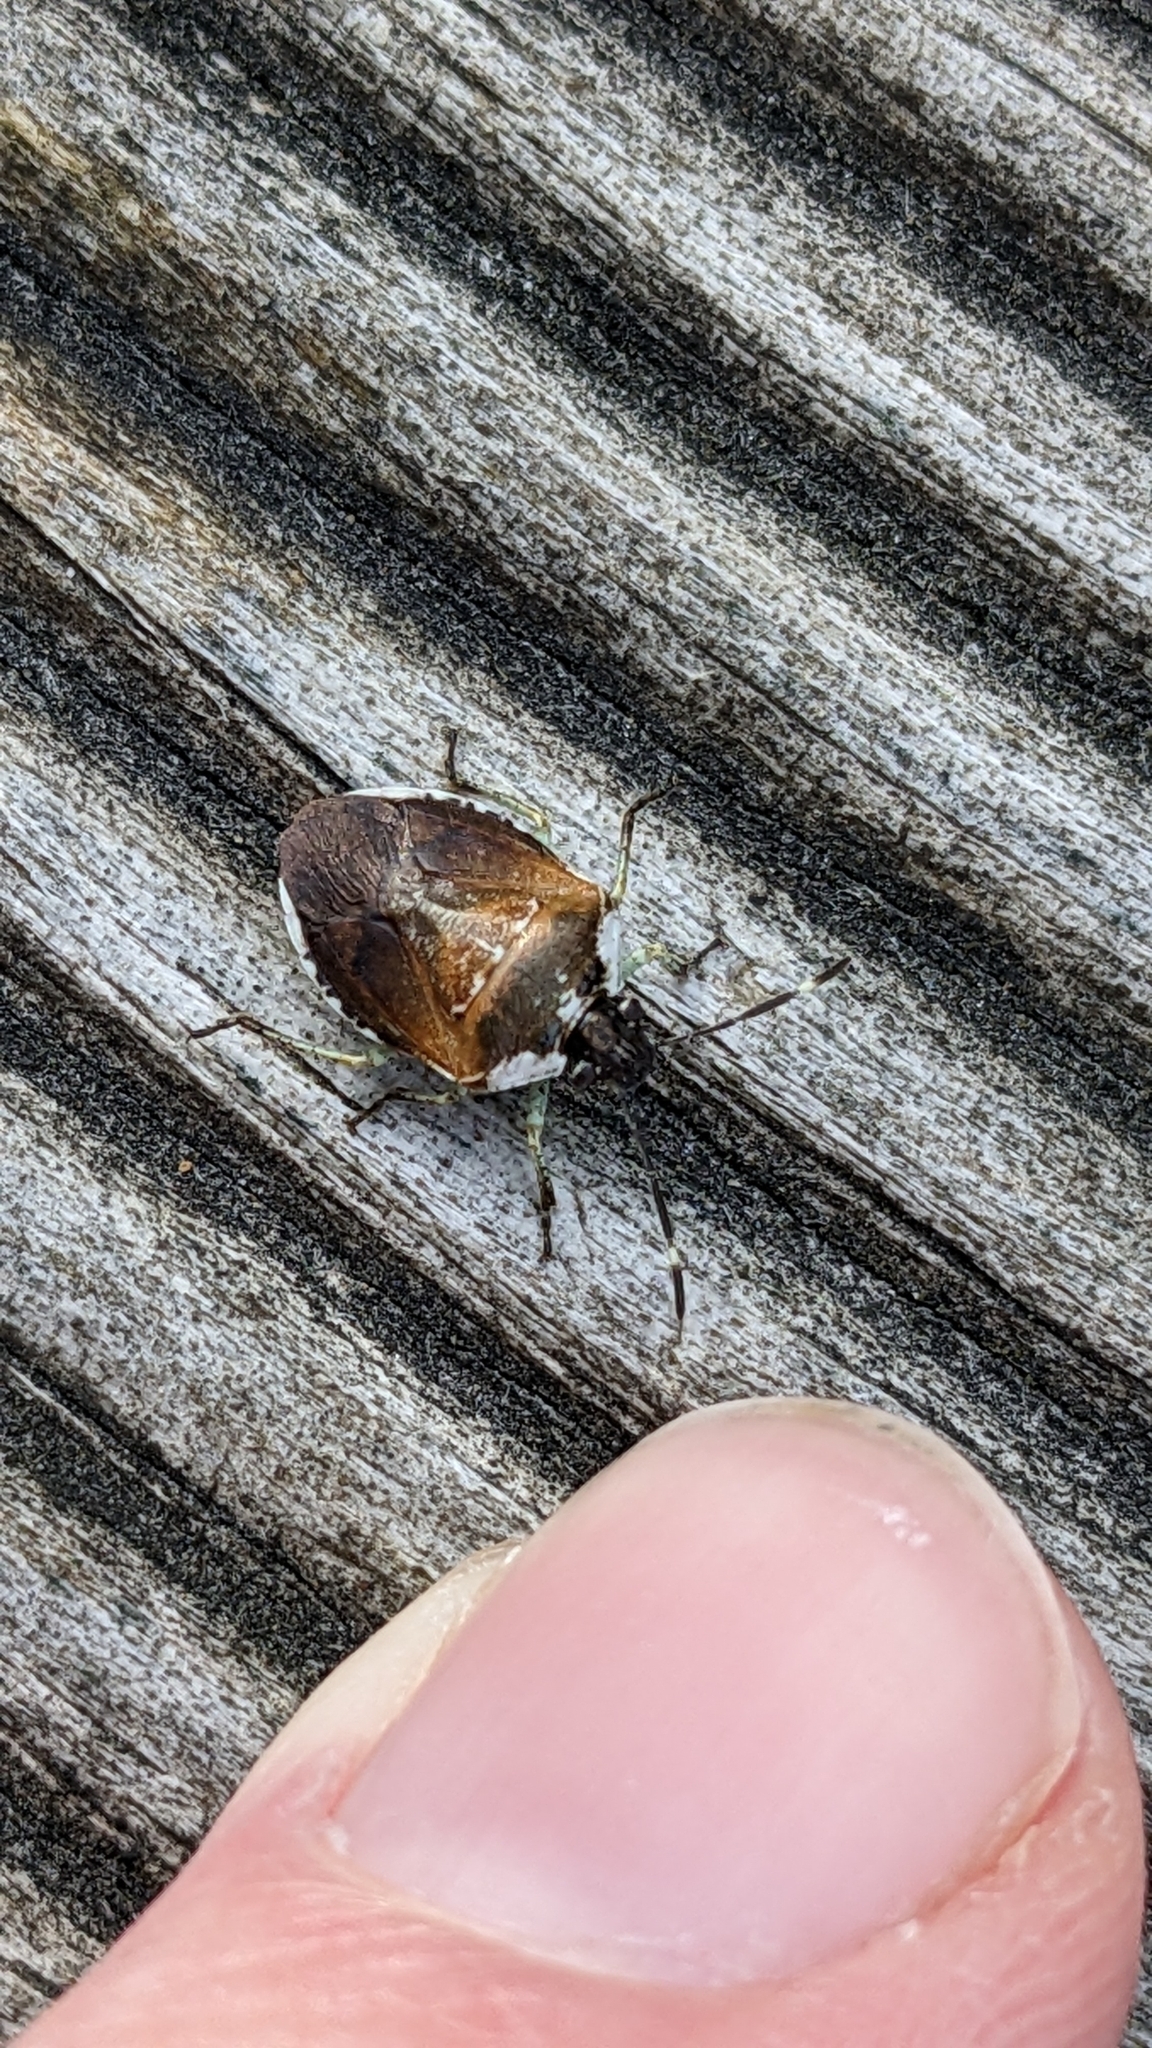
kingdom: Animalia
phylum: Arthropoda
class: Insecta
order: Hemiptera
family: Pentatomidae
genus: Monteithiella
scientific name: Monteithiella
